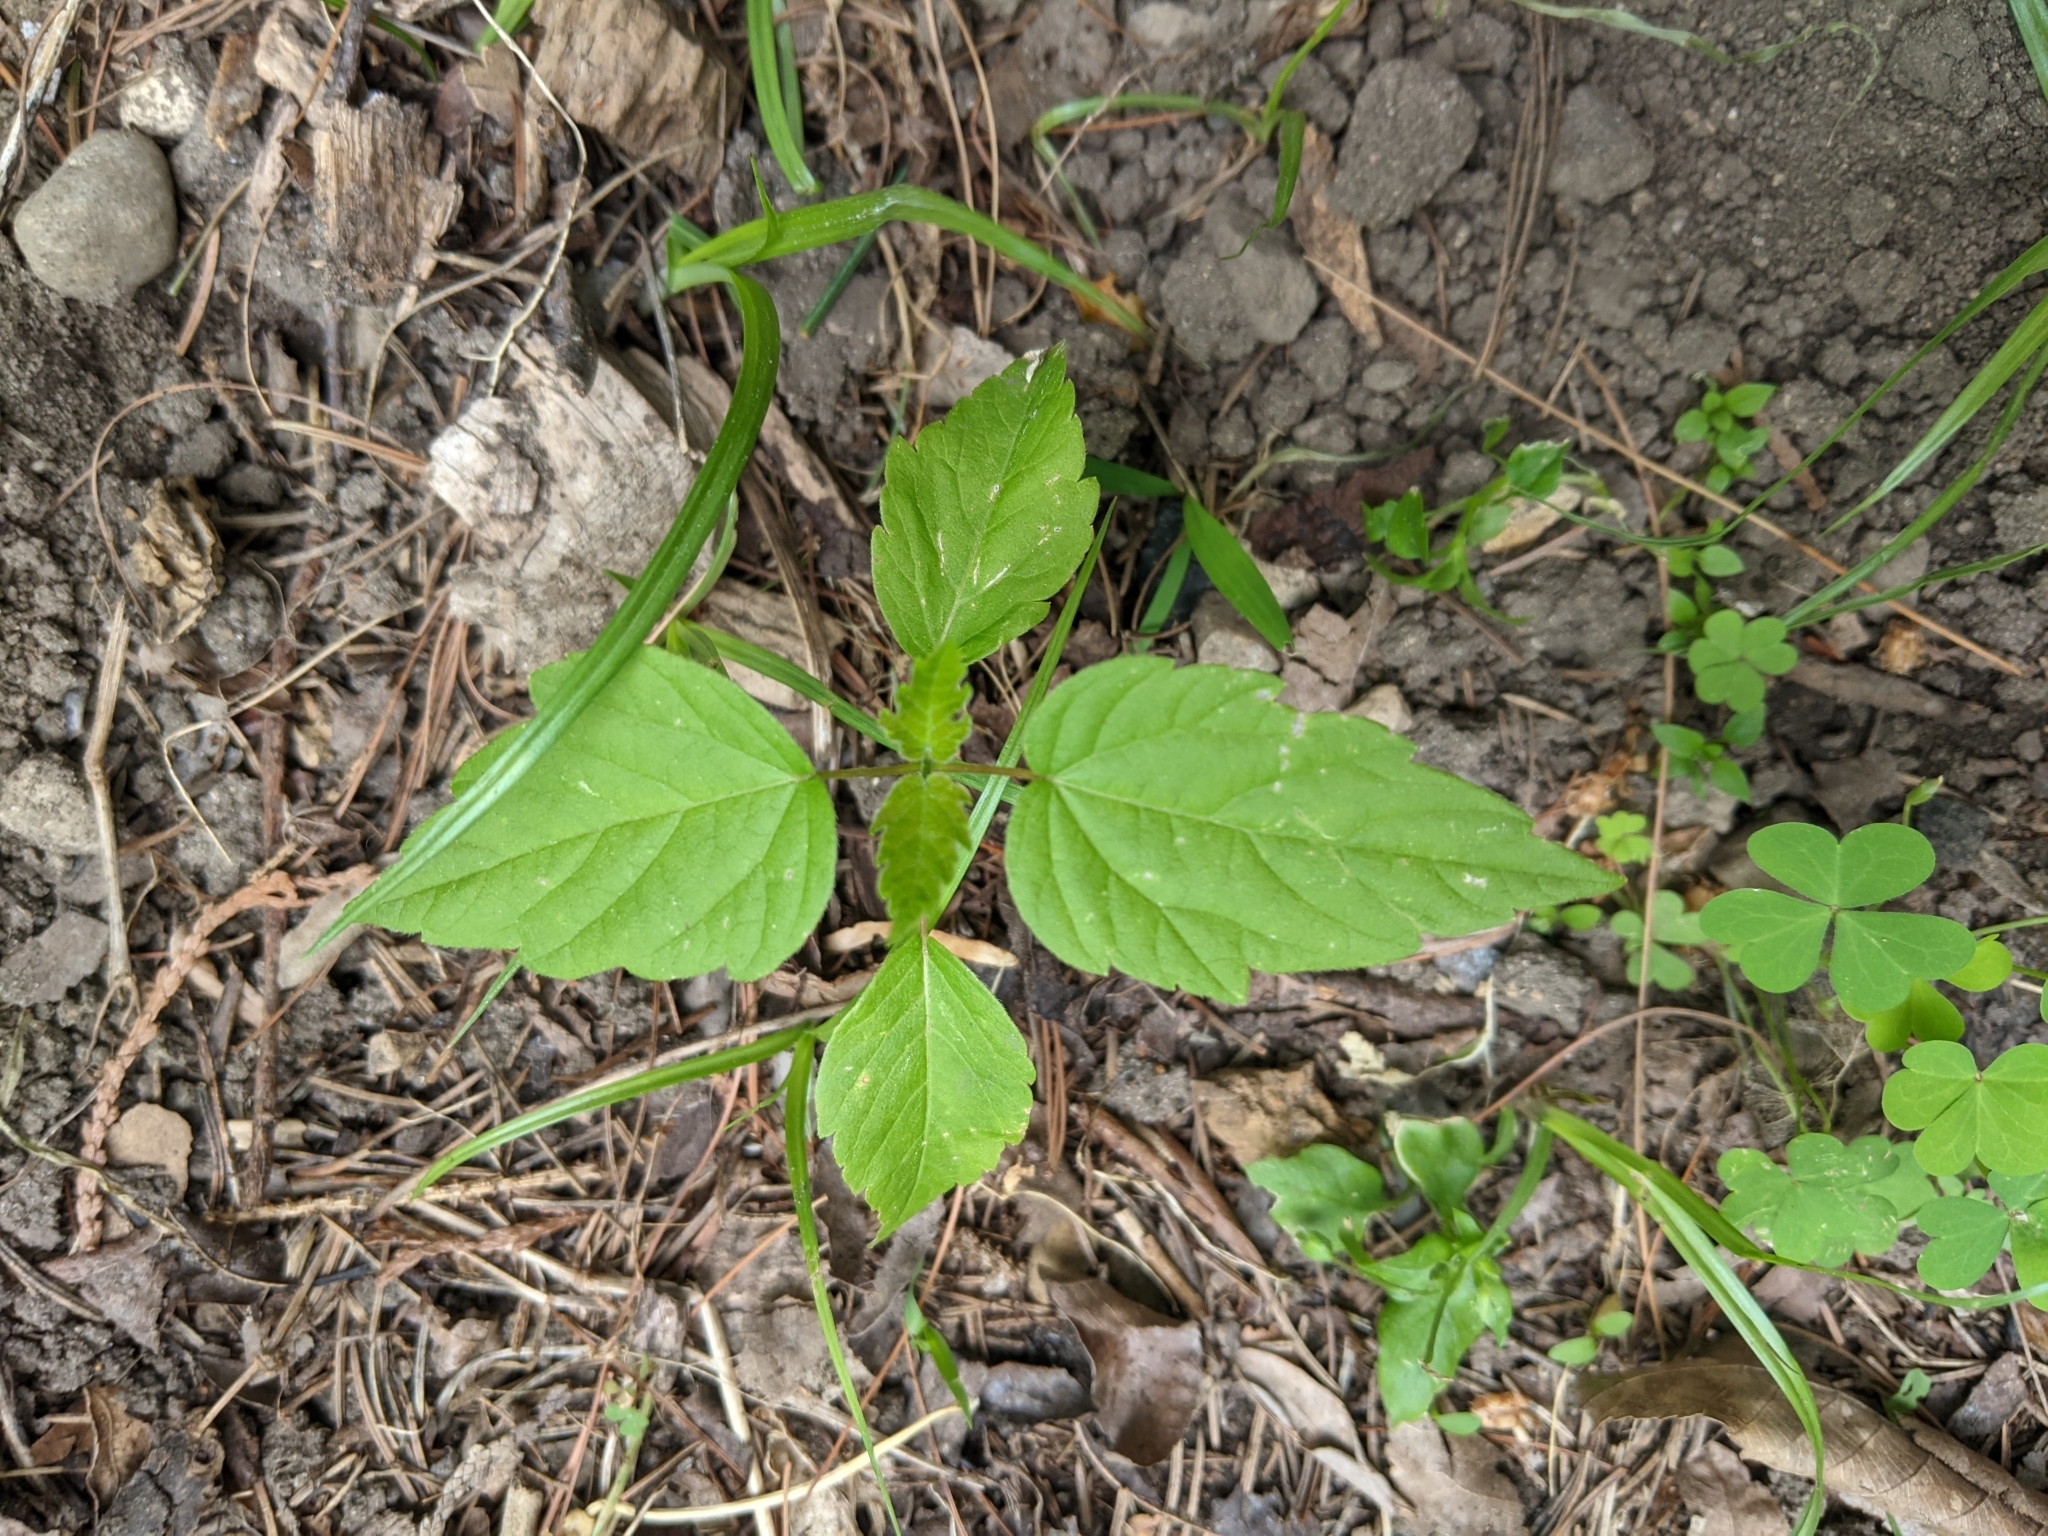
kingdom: Plantae
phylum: Tracheophyta
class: Magnoliopsida
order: Myrtales
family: Onagraceae
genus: Circaea
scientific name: Circaea canadensis
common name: Broad-leaved enchanter's nightshade
